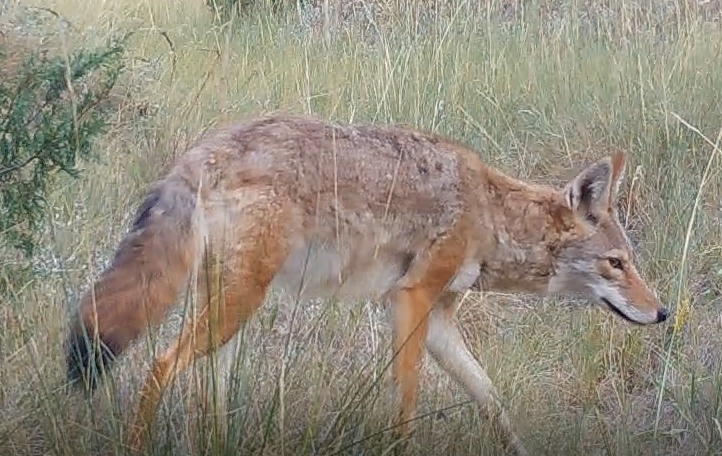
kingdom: Animalia
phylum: Chordata
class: Mammalia
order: Carnivora
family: Canidae
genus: Canis
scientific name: Canis latrans
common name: Coyote
